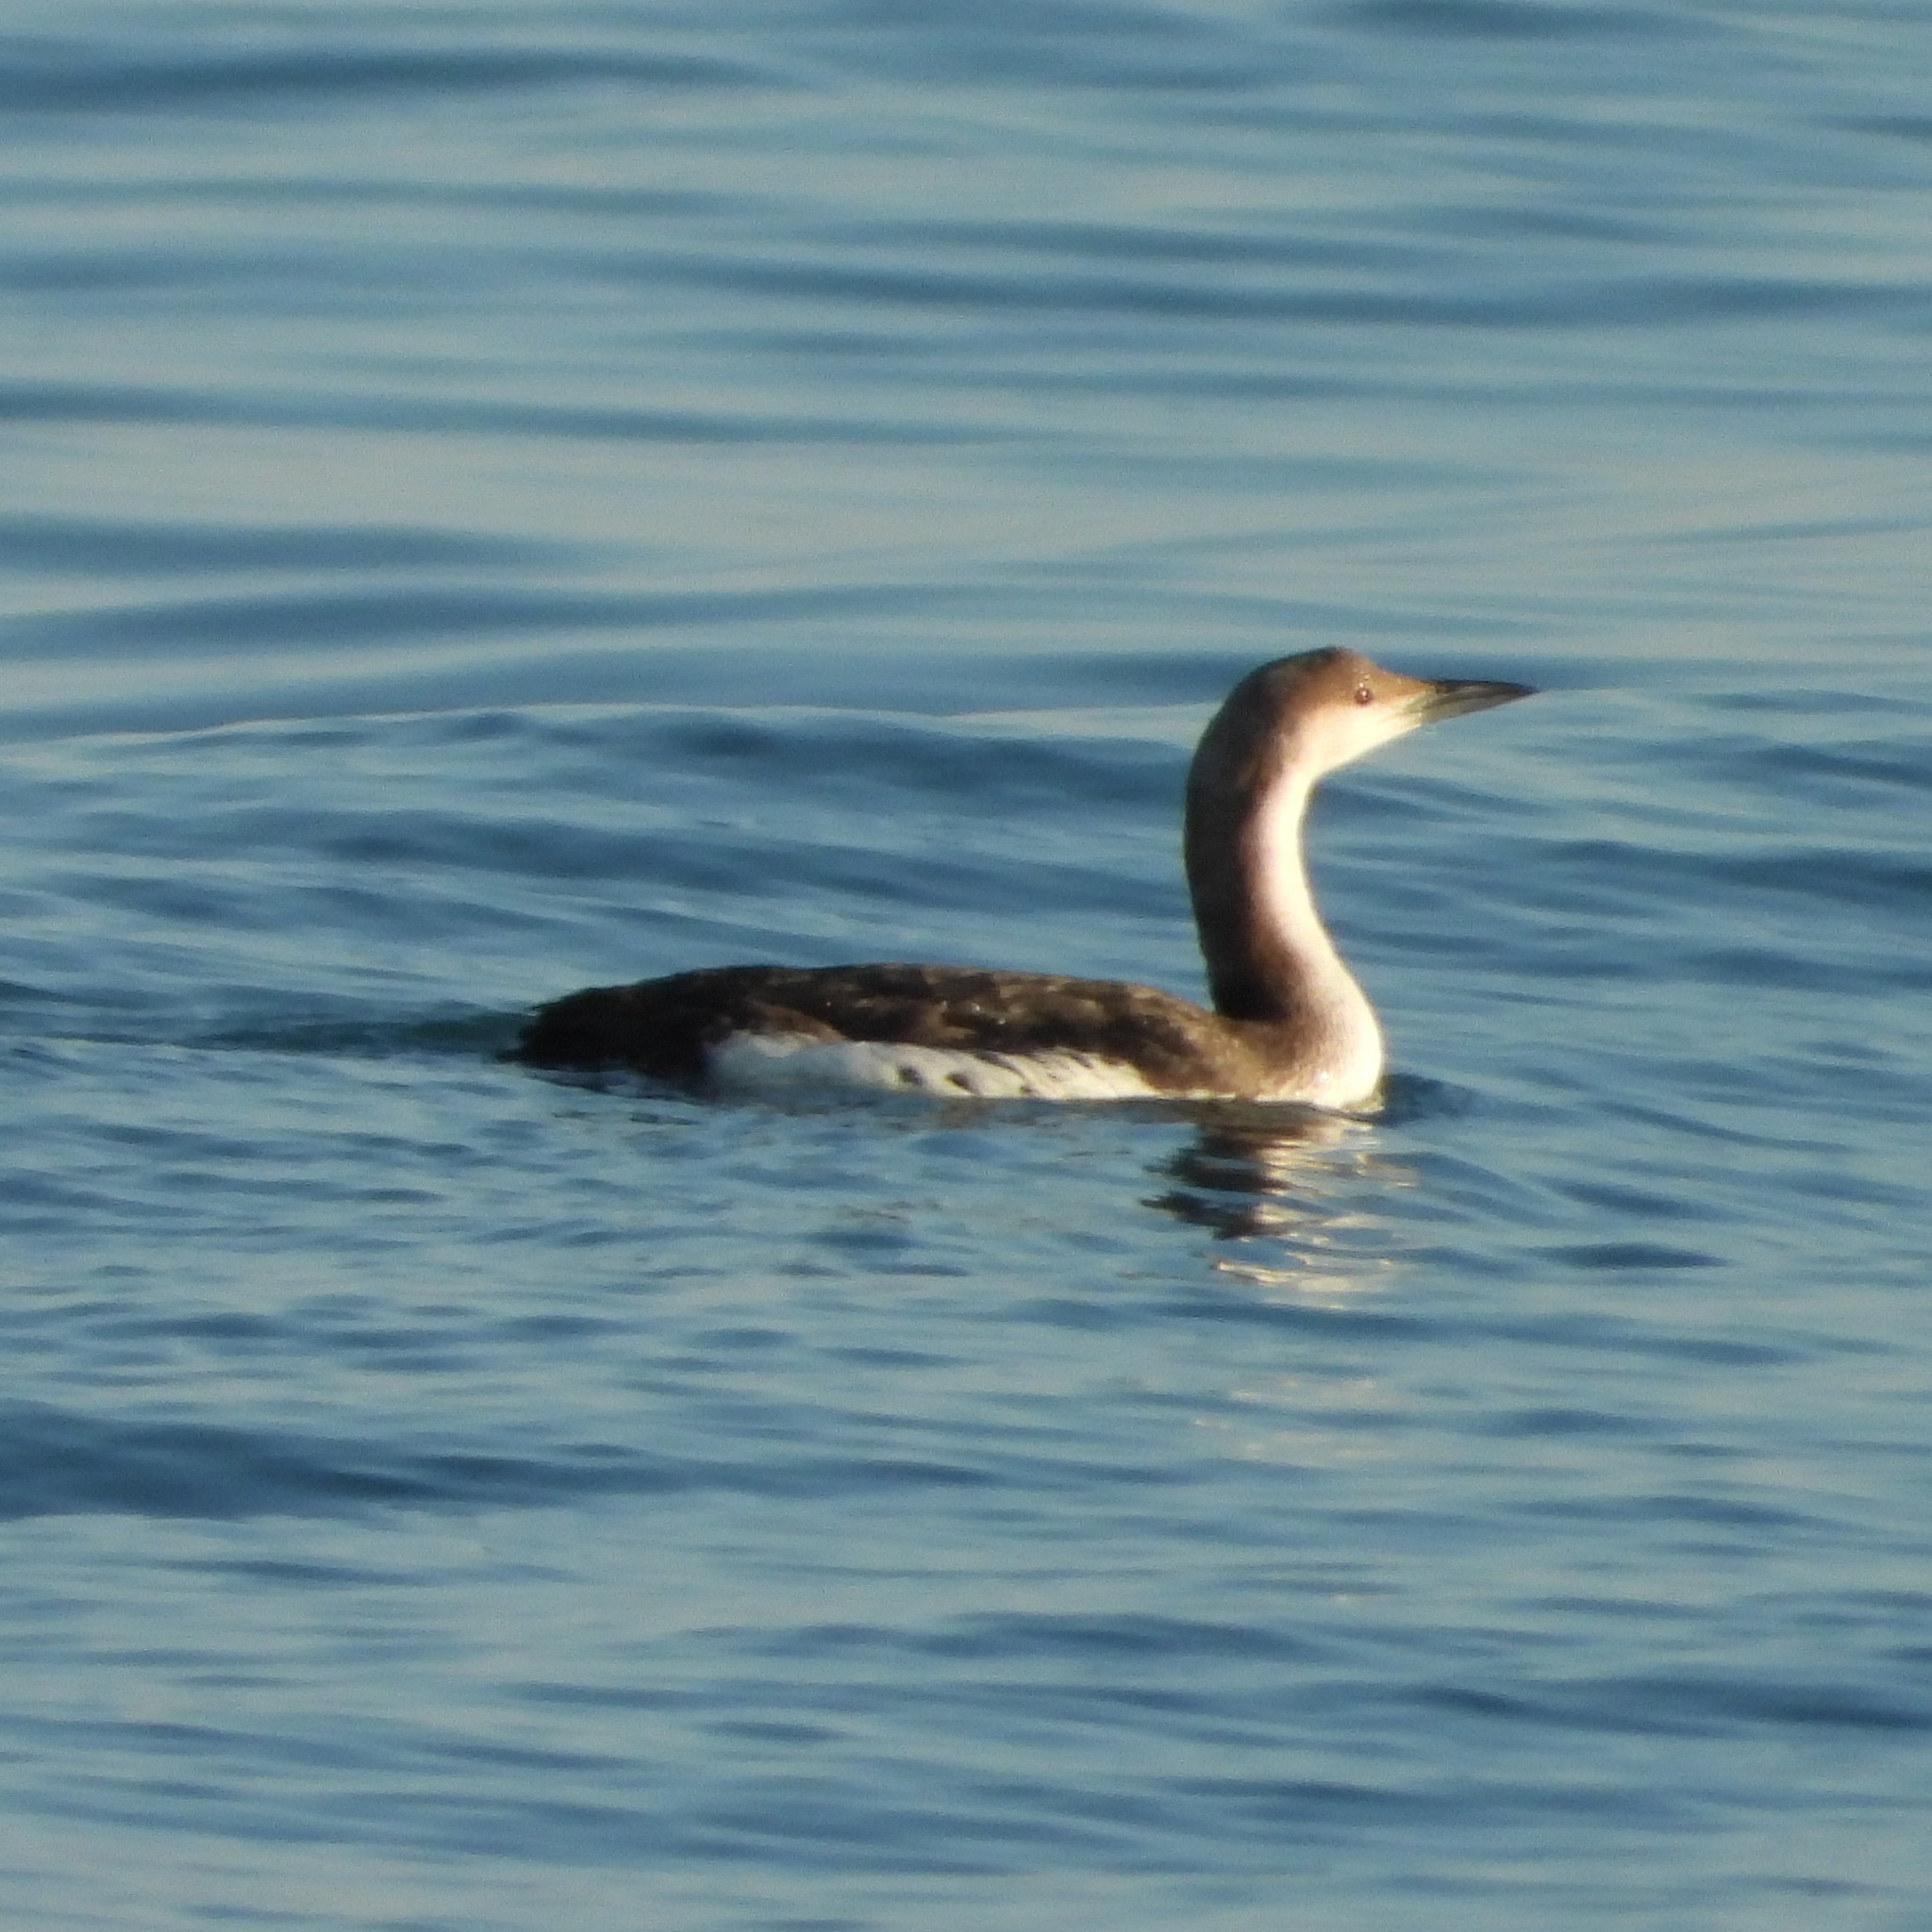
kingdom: Animalia
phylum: Chordata
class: Aves
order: Gaviiformes
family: Gaviidae
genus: Gavia
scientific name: Gavia arctica
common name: Black-throated loon
